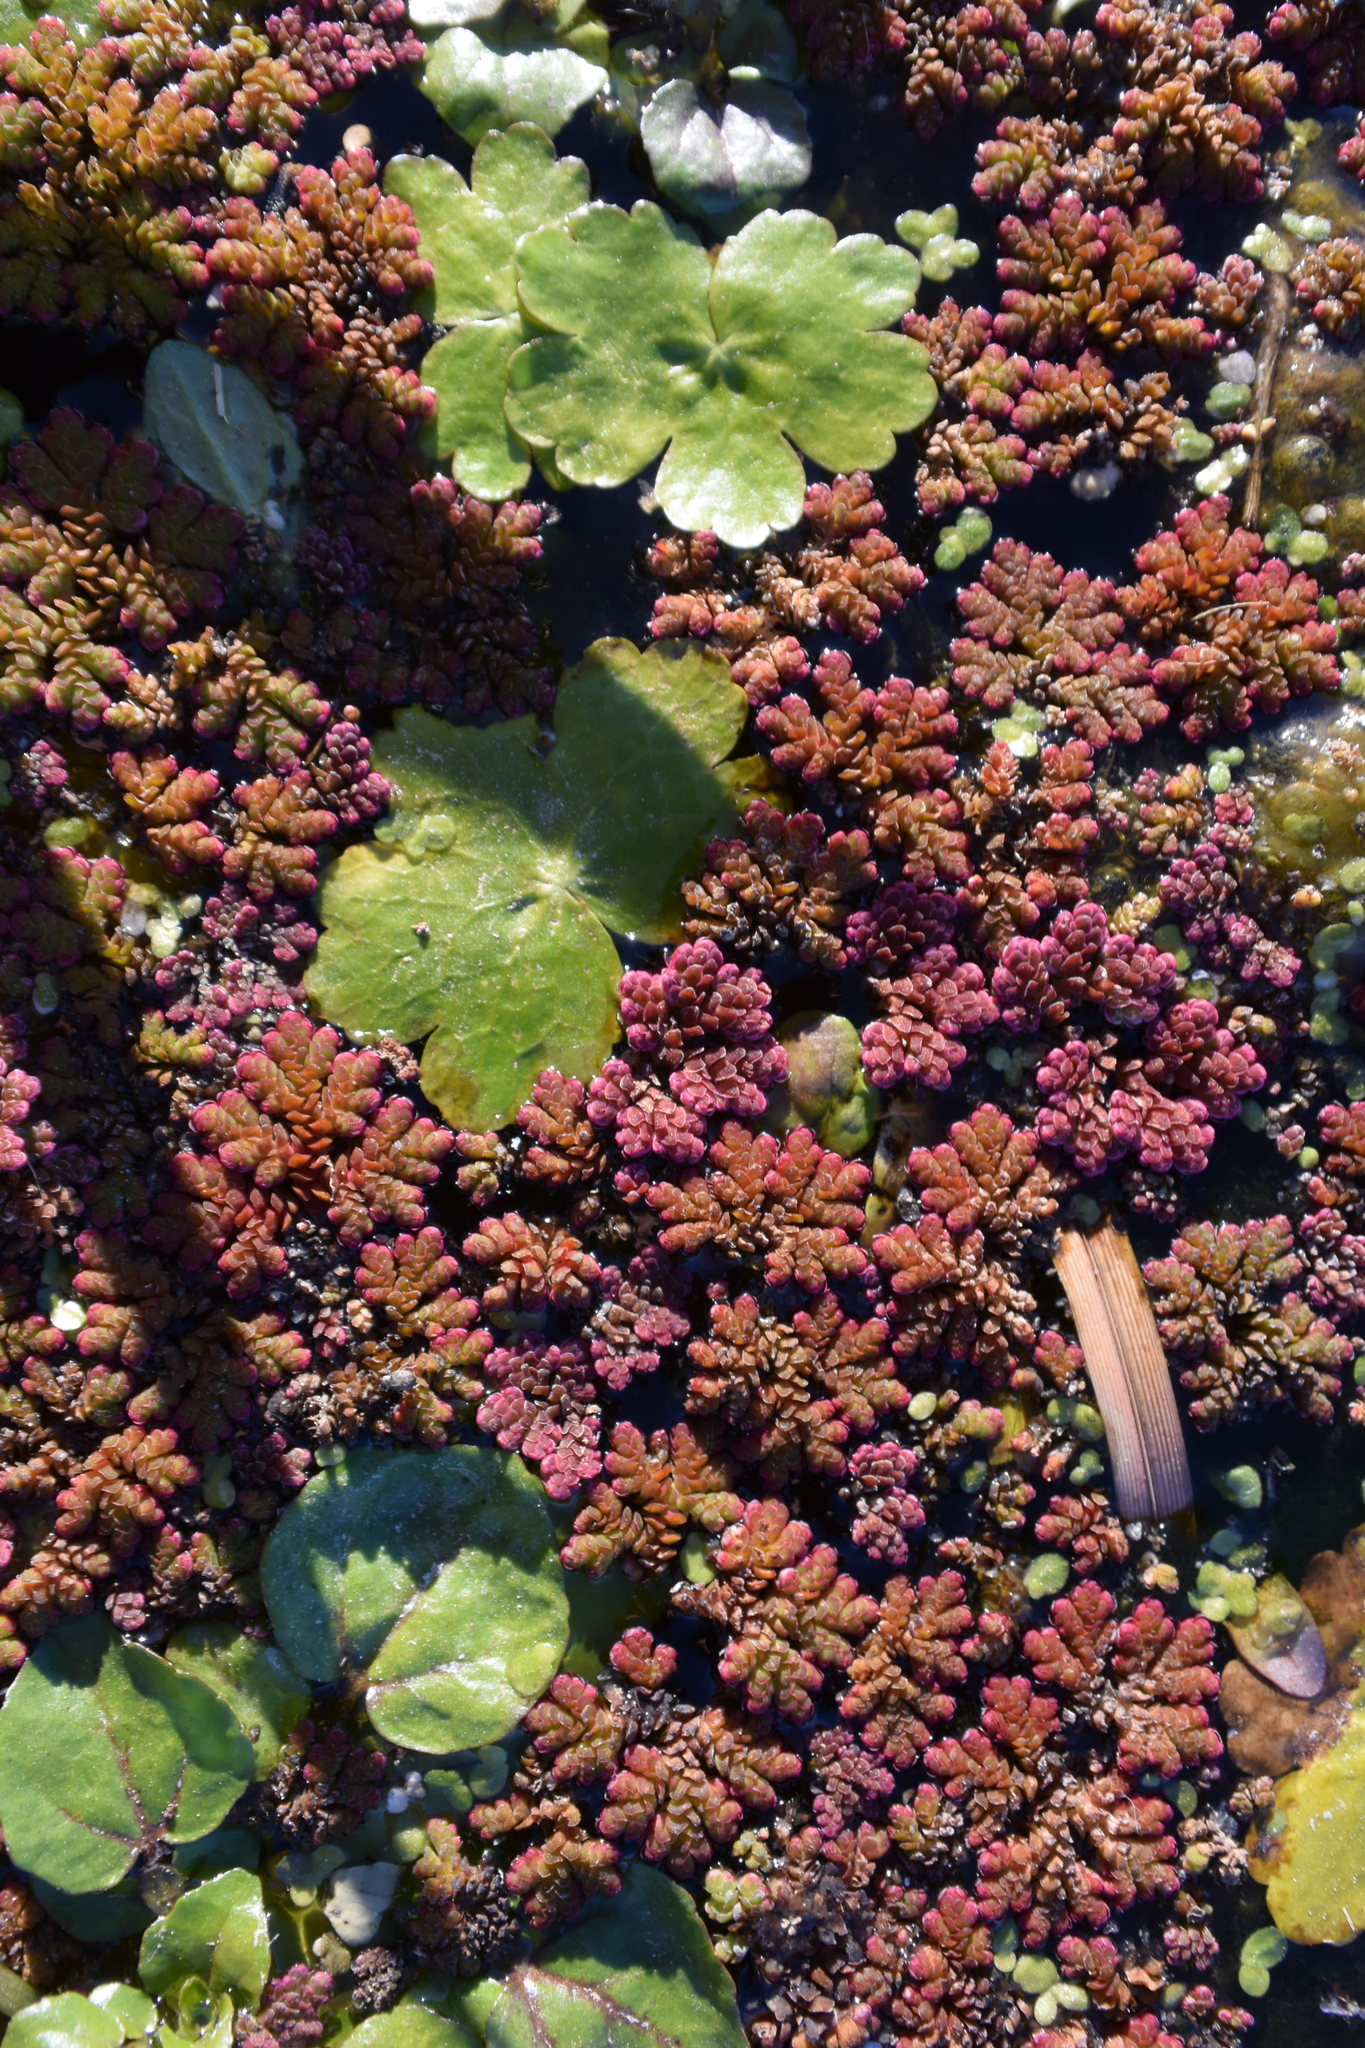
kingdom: Plantae
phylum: Tracheophyta
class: Polypodiopsida
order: Salviniales
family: Salviniaceae
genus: Azolla
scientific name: Azolla filiculoides
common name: Water fern
